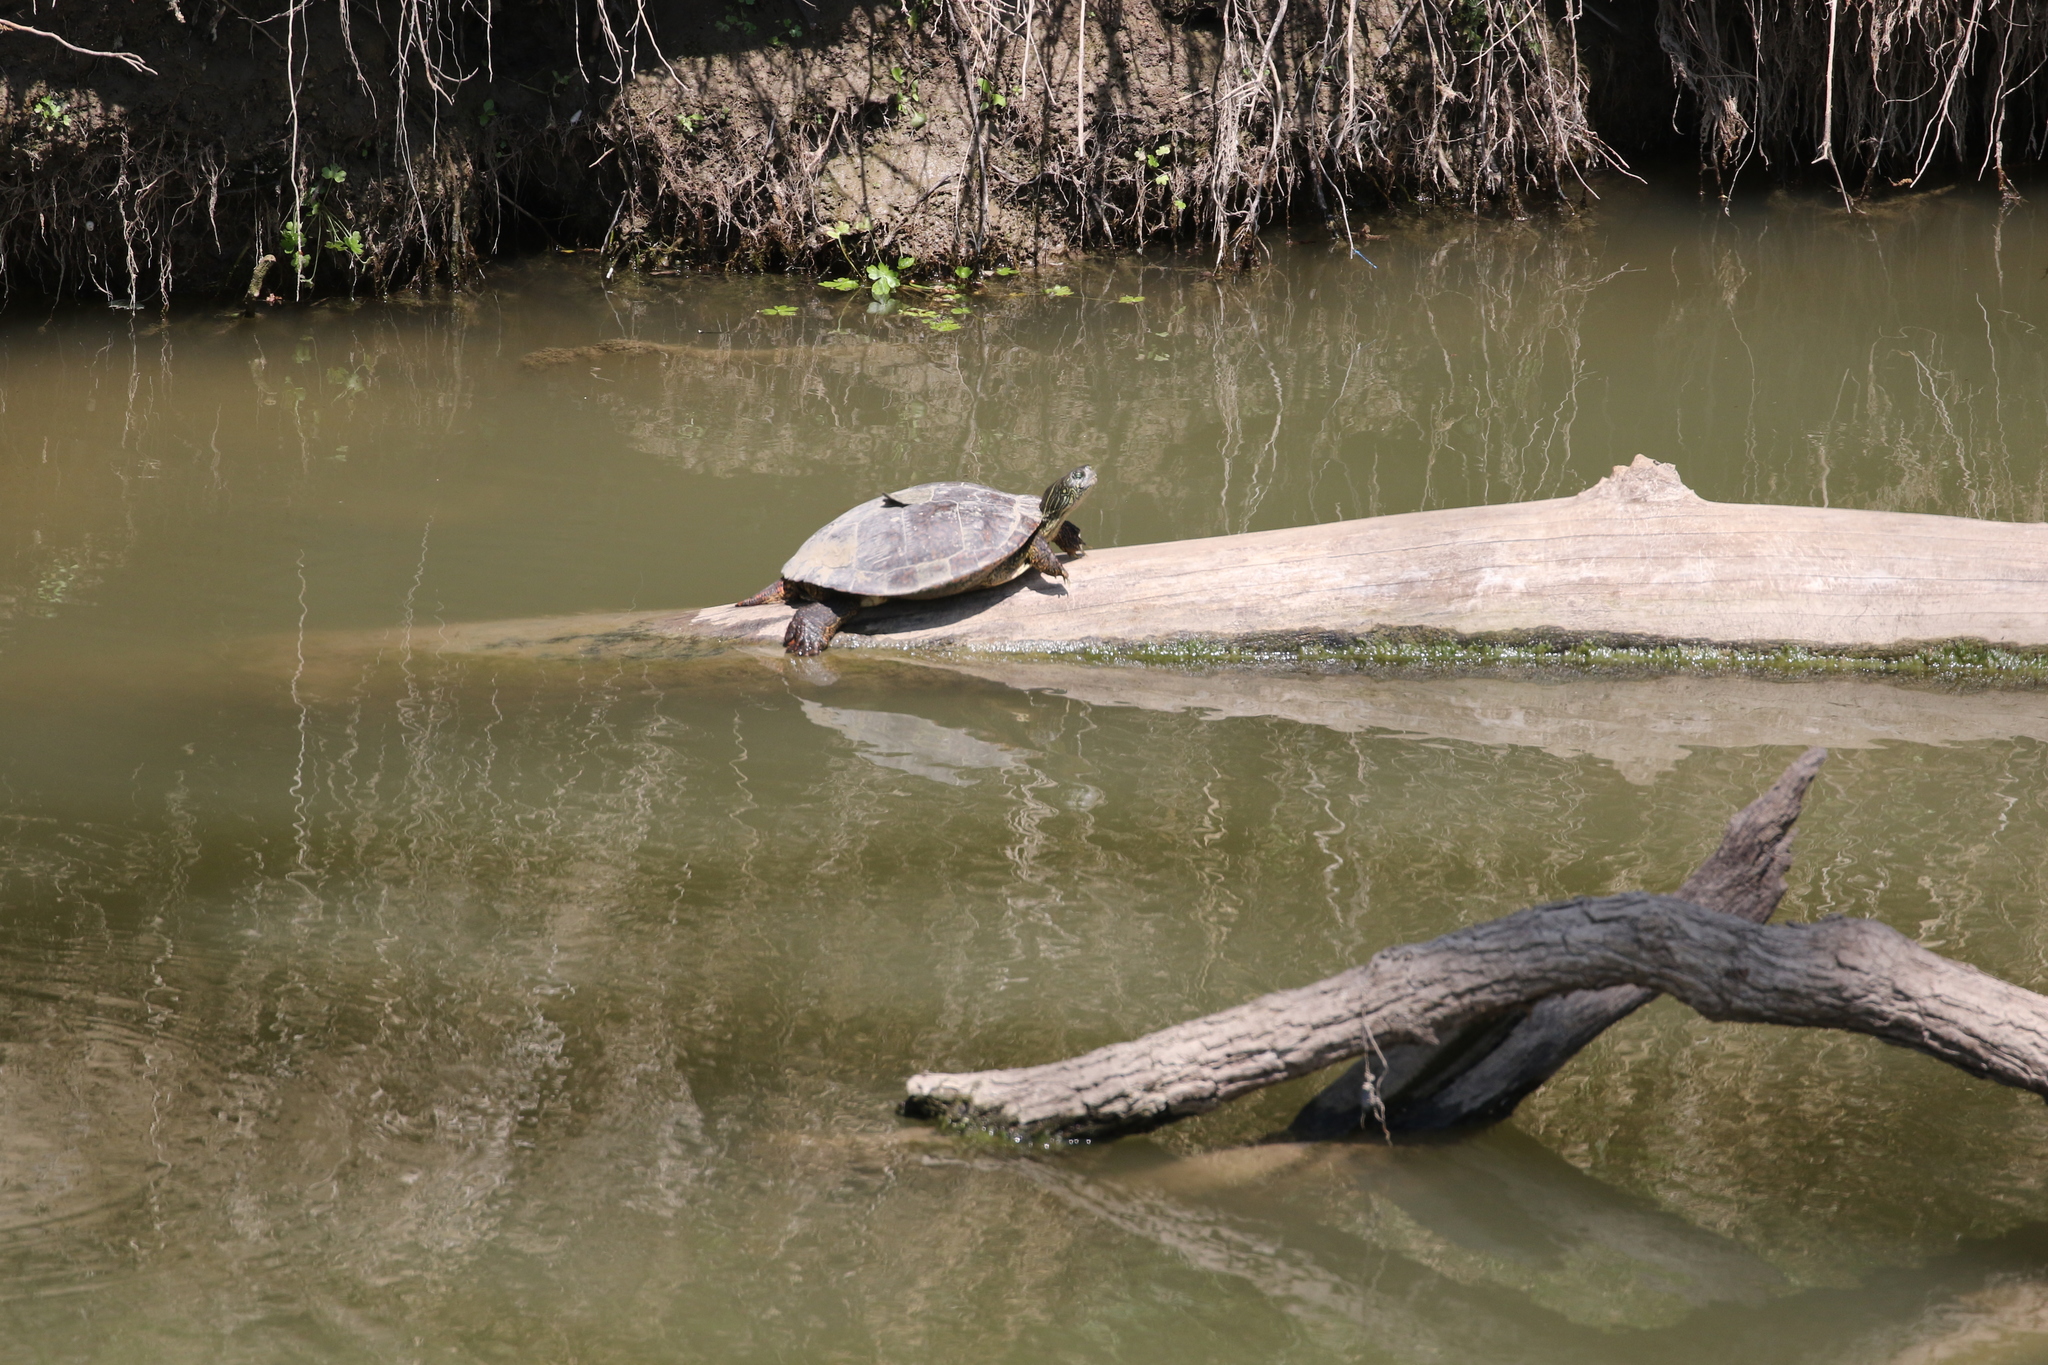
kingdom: Animalia
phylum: Chordata
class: Testudines
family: Emydidae
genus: Pseudemys
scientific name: Pseudemys texana
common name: Texas river cooter
